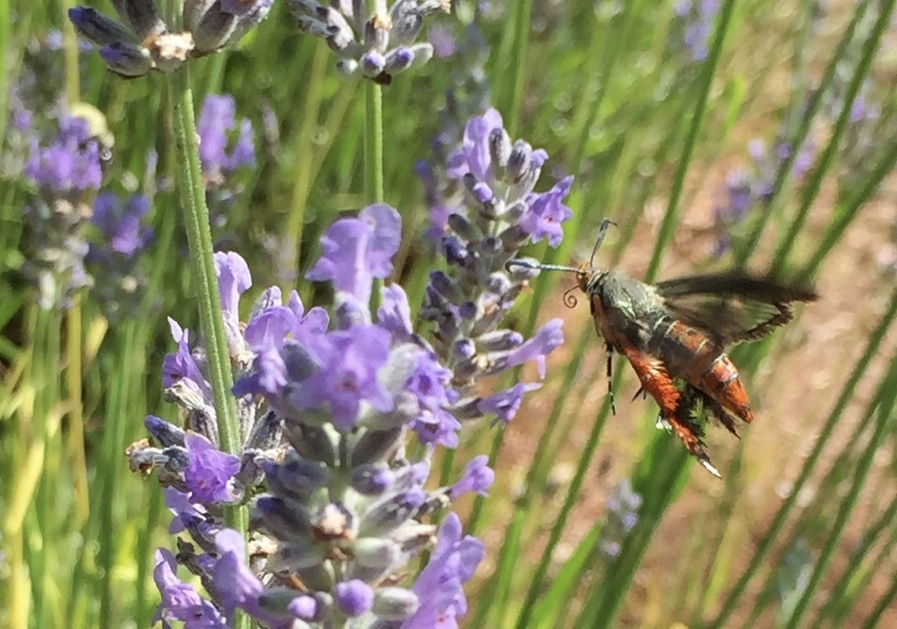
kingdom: Animalia
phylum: Arthropoda
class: Insecta
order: Lepidoptera
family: Sesiidae
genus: Eichlinia
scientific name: Eichlinia cucurbitae
